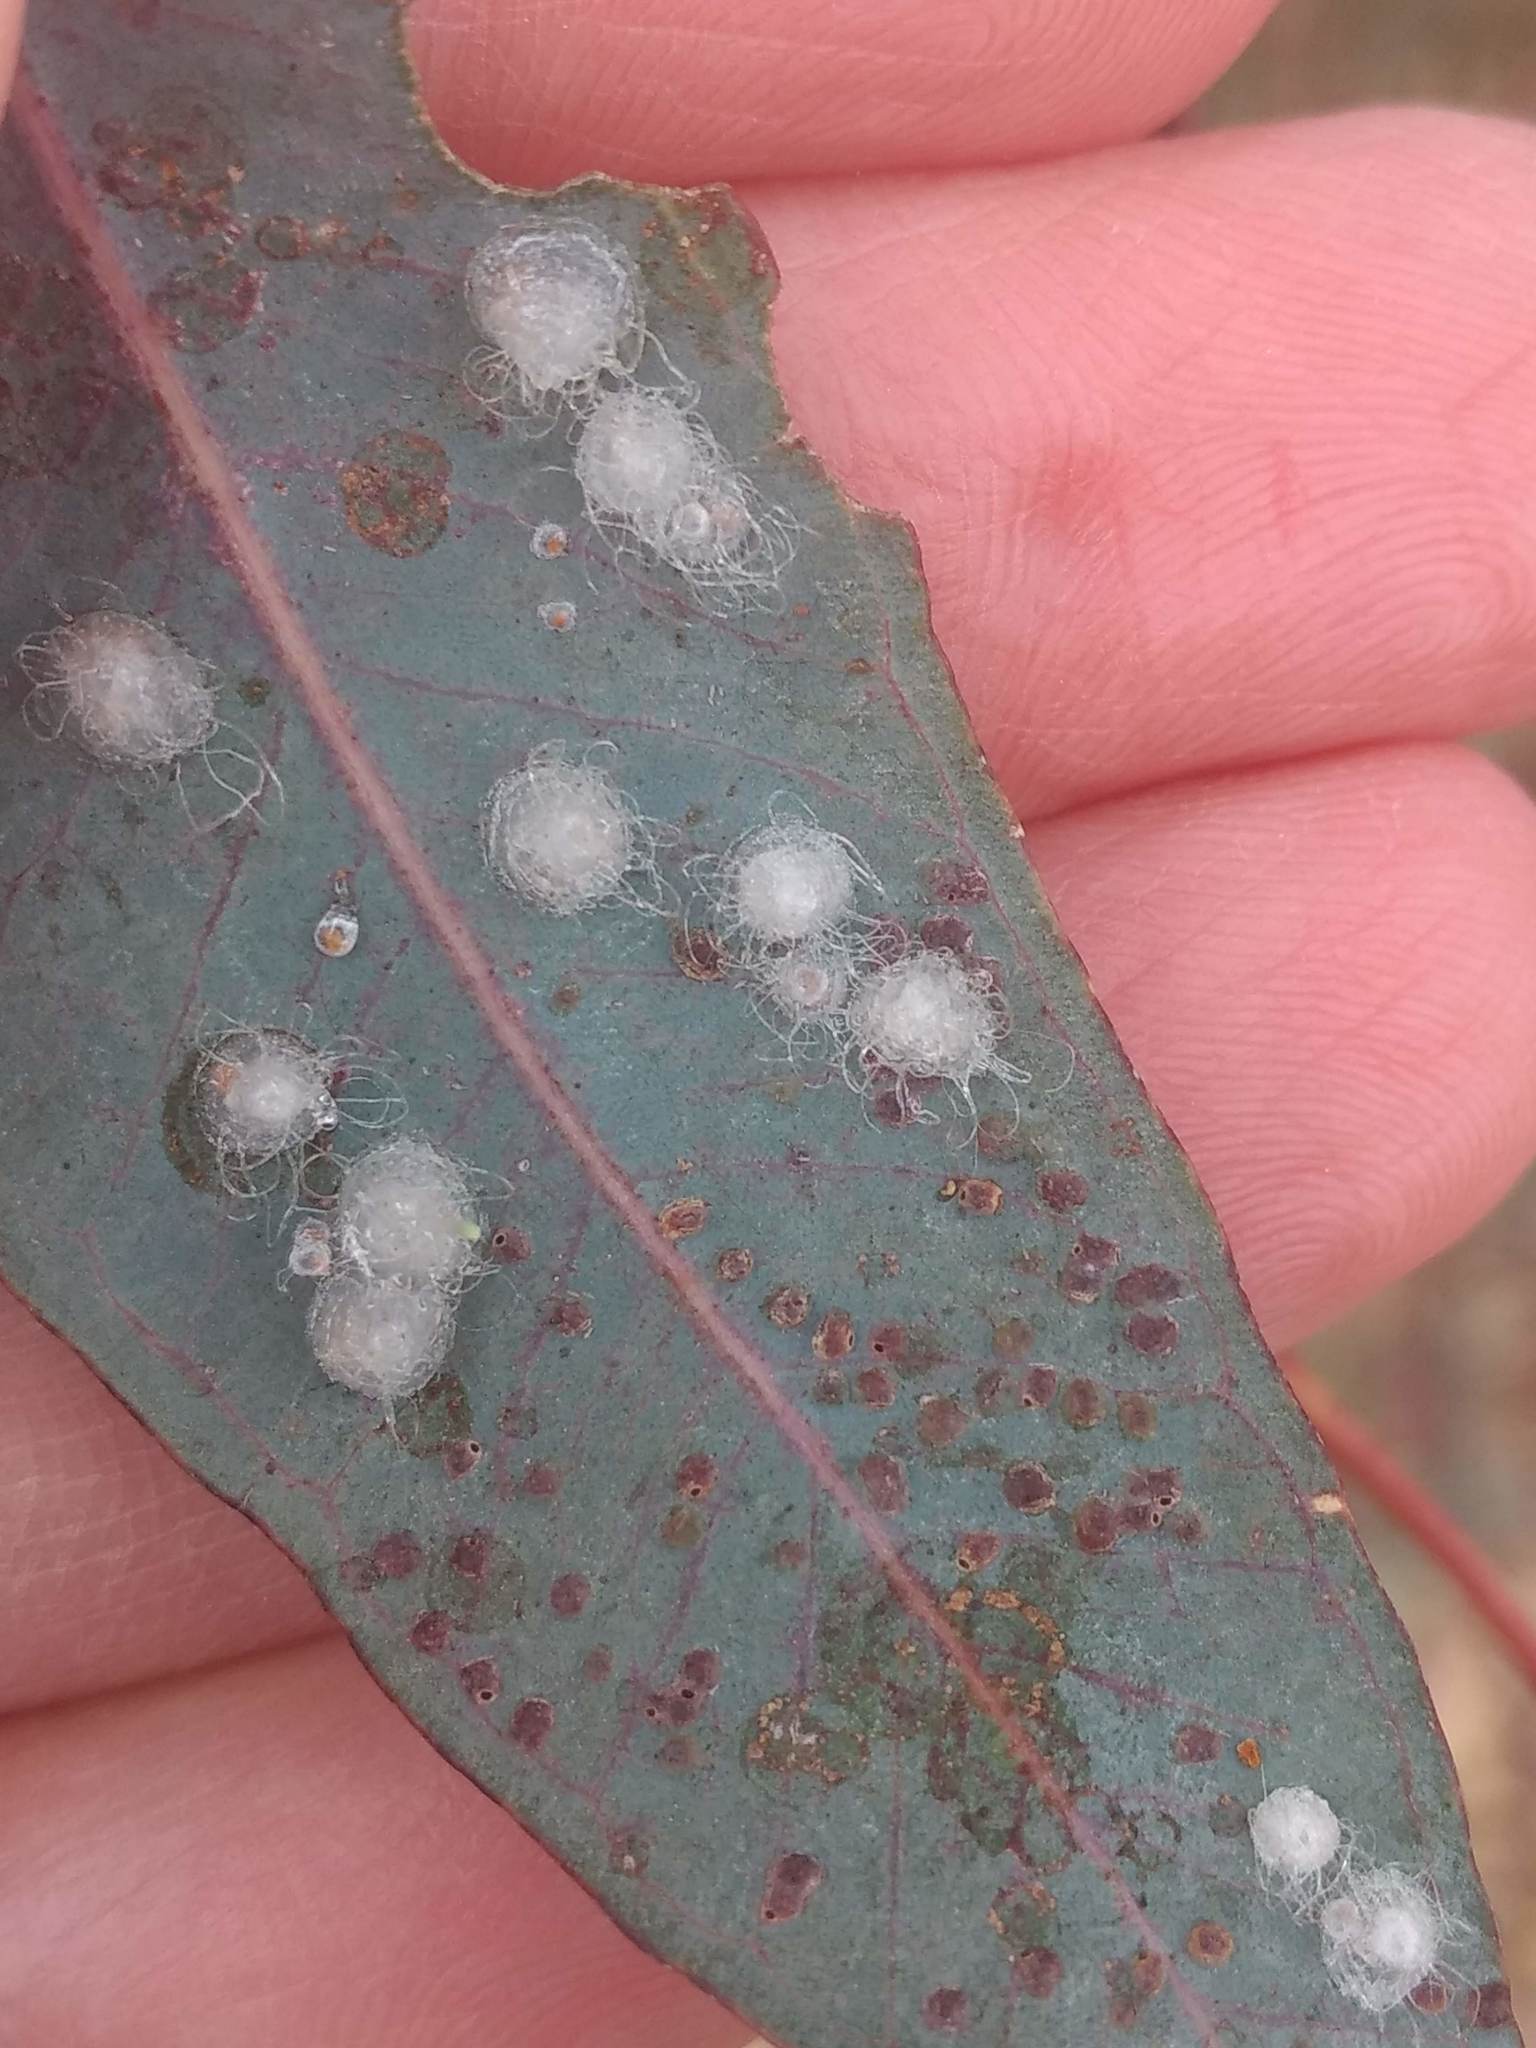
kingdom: Animalia
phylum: Arthropoda
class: Insecta
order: Hemiptera
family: Aphalaridae
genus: Glycaspis
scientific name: Glycaspis brimblecombei
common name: Red gum lerp psyllid
